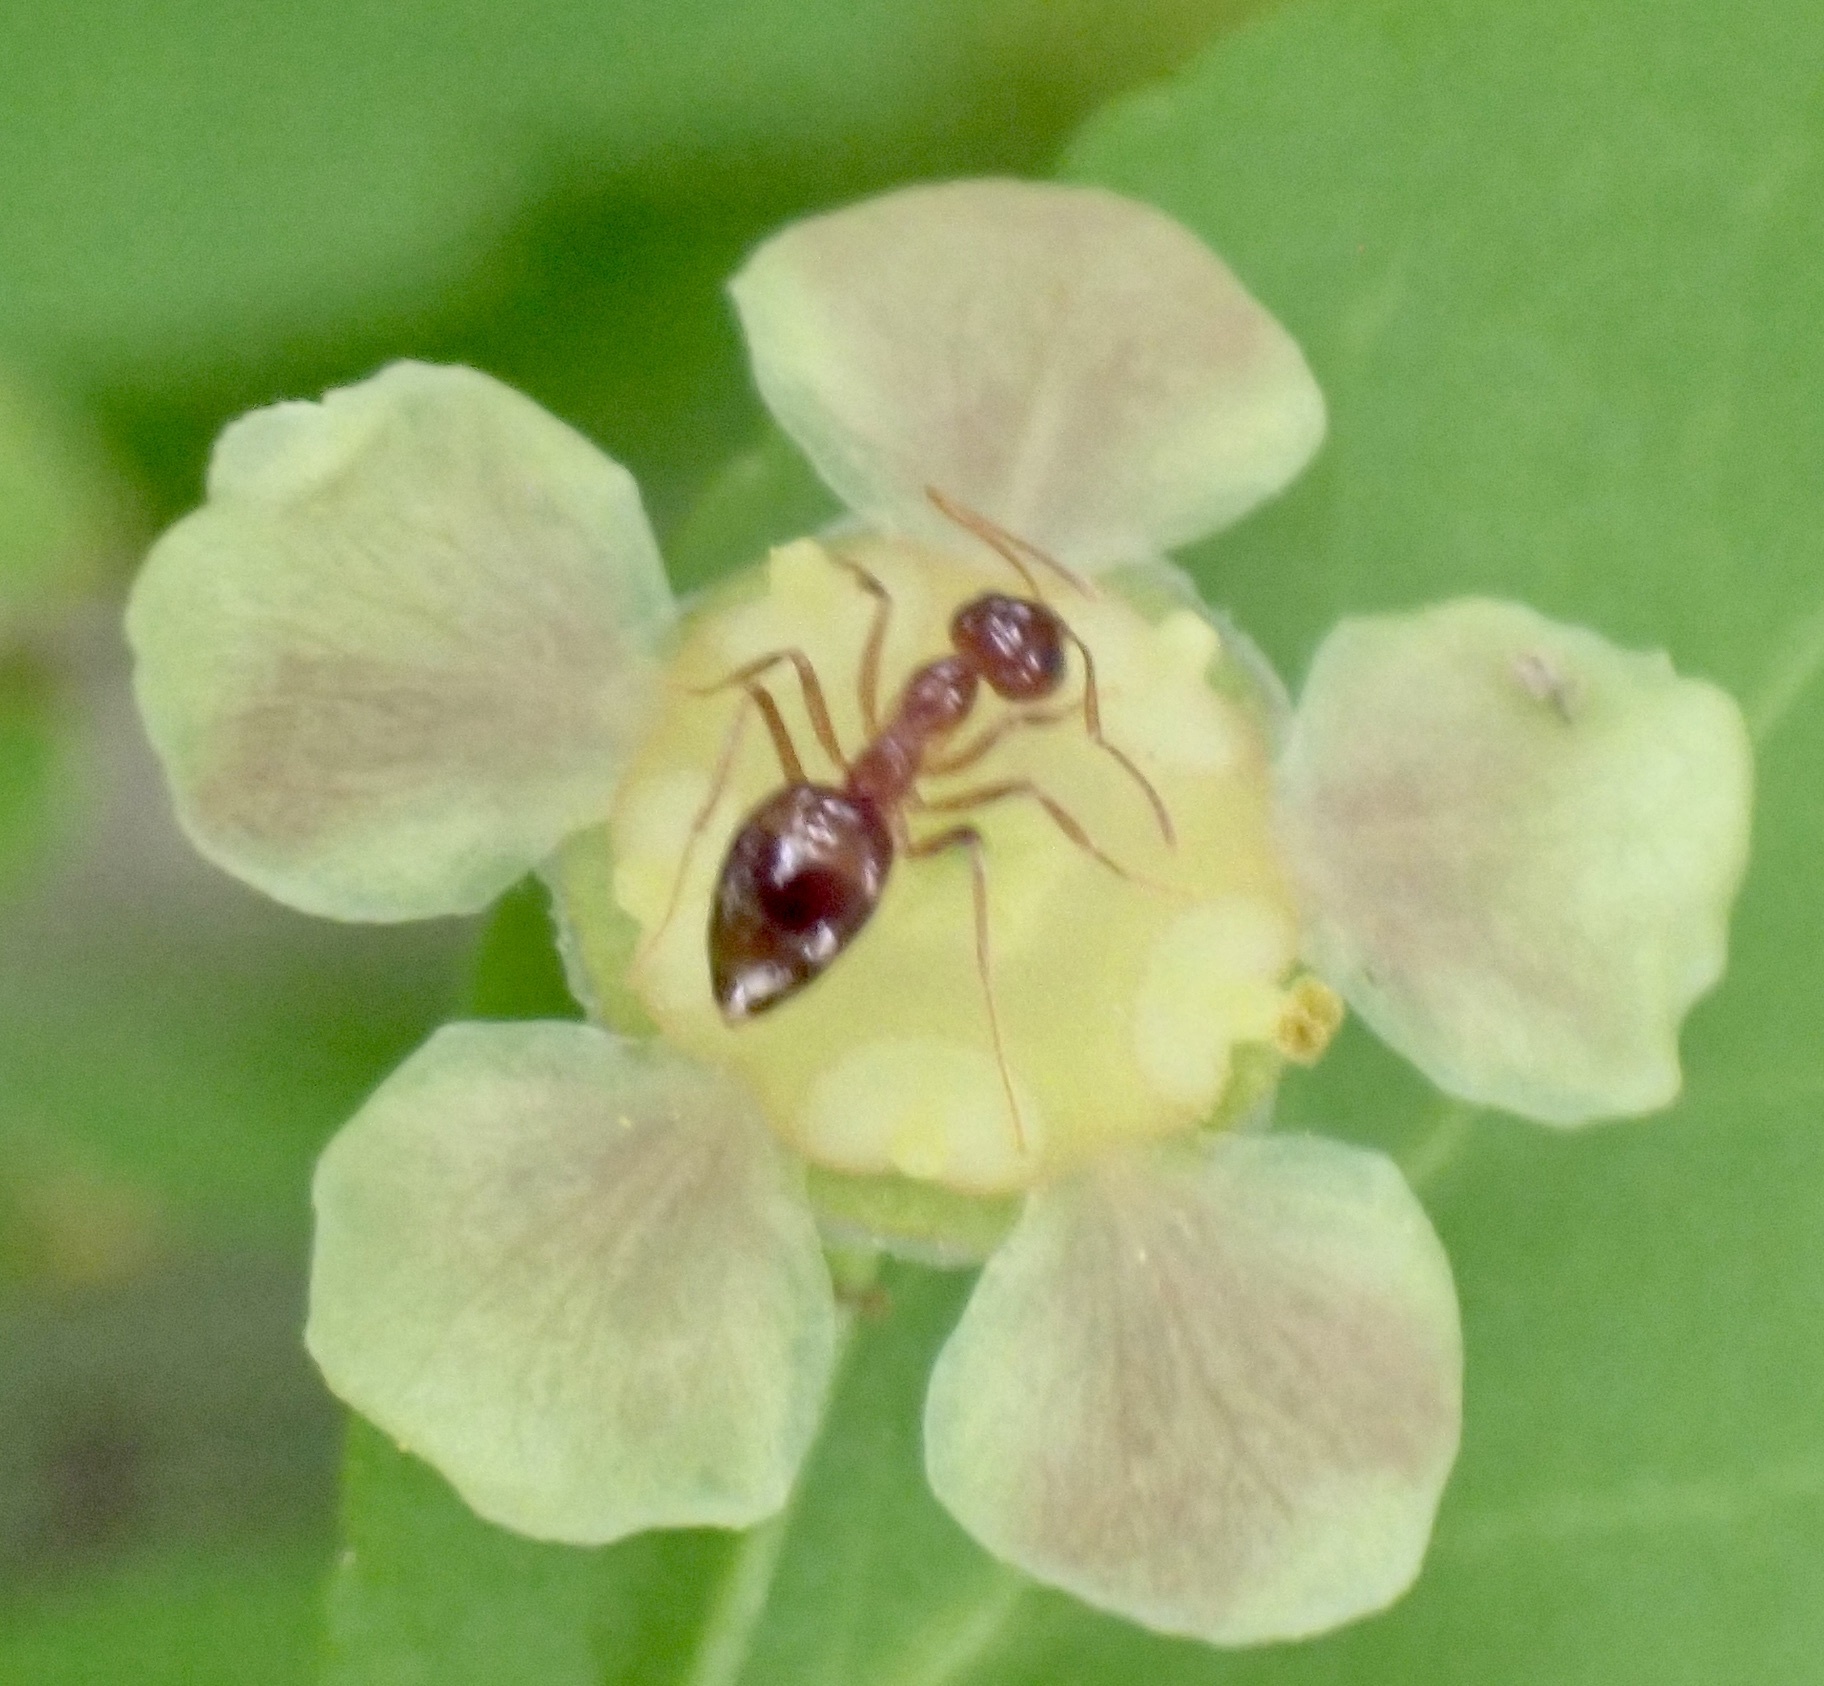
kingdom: Animalia
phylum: Arthropoda
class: Insecta
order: Hymenoptera
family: Formicidae
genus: Prenolepis
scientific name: Prenolepis imparis
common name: Small honey ant
